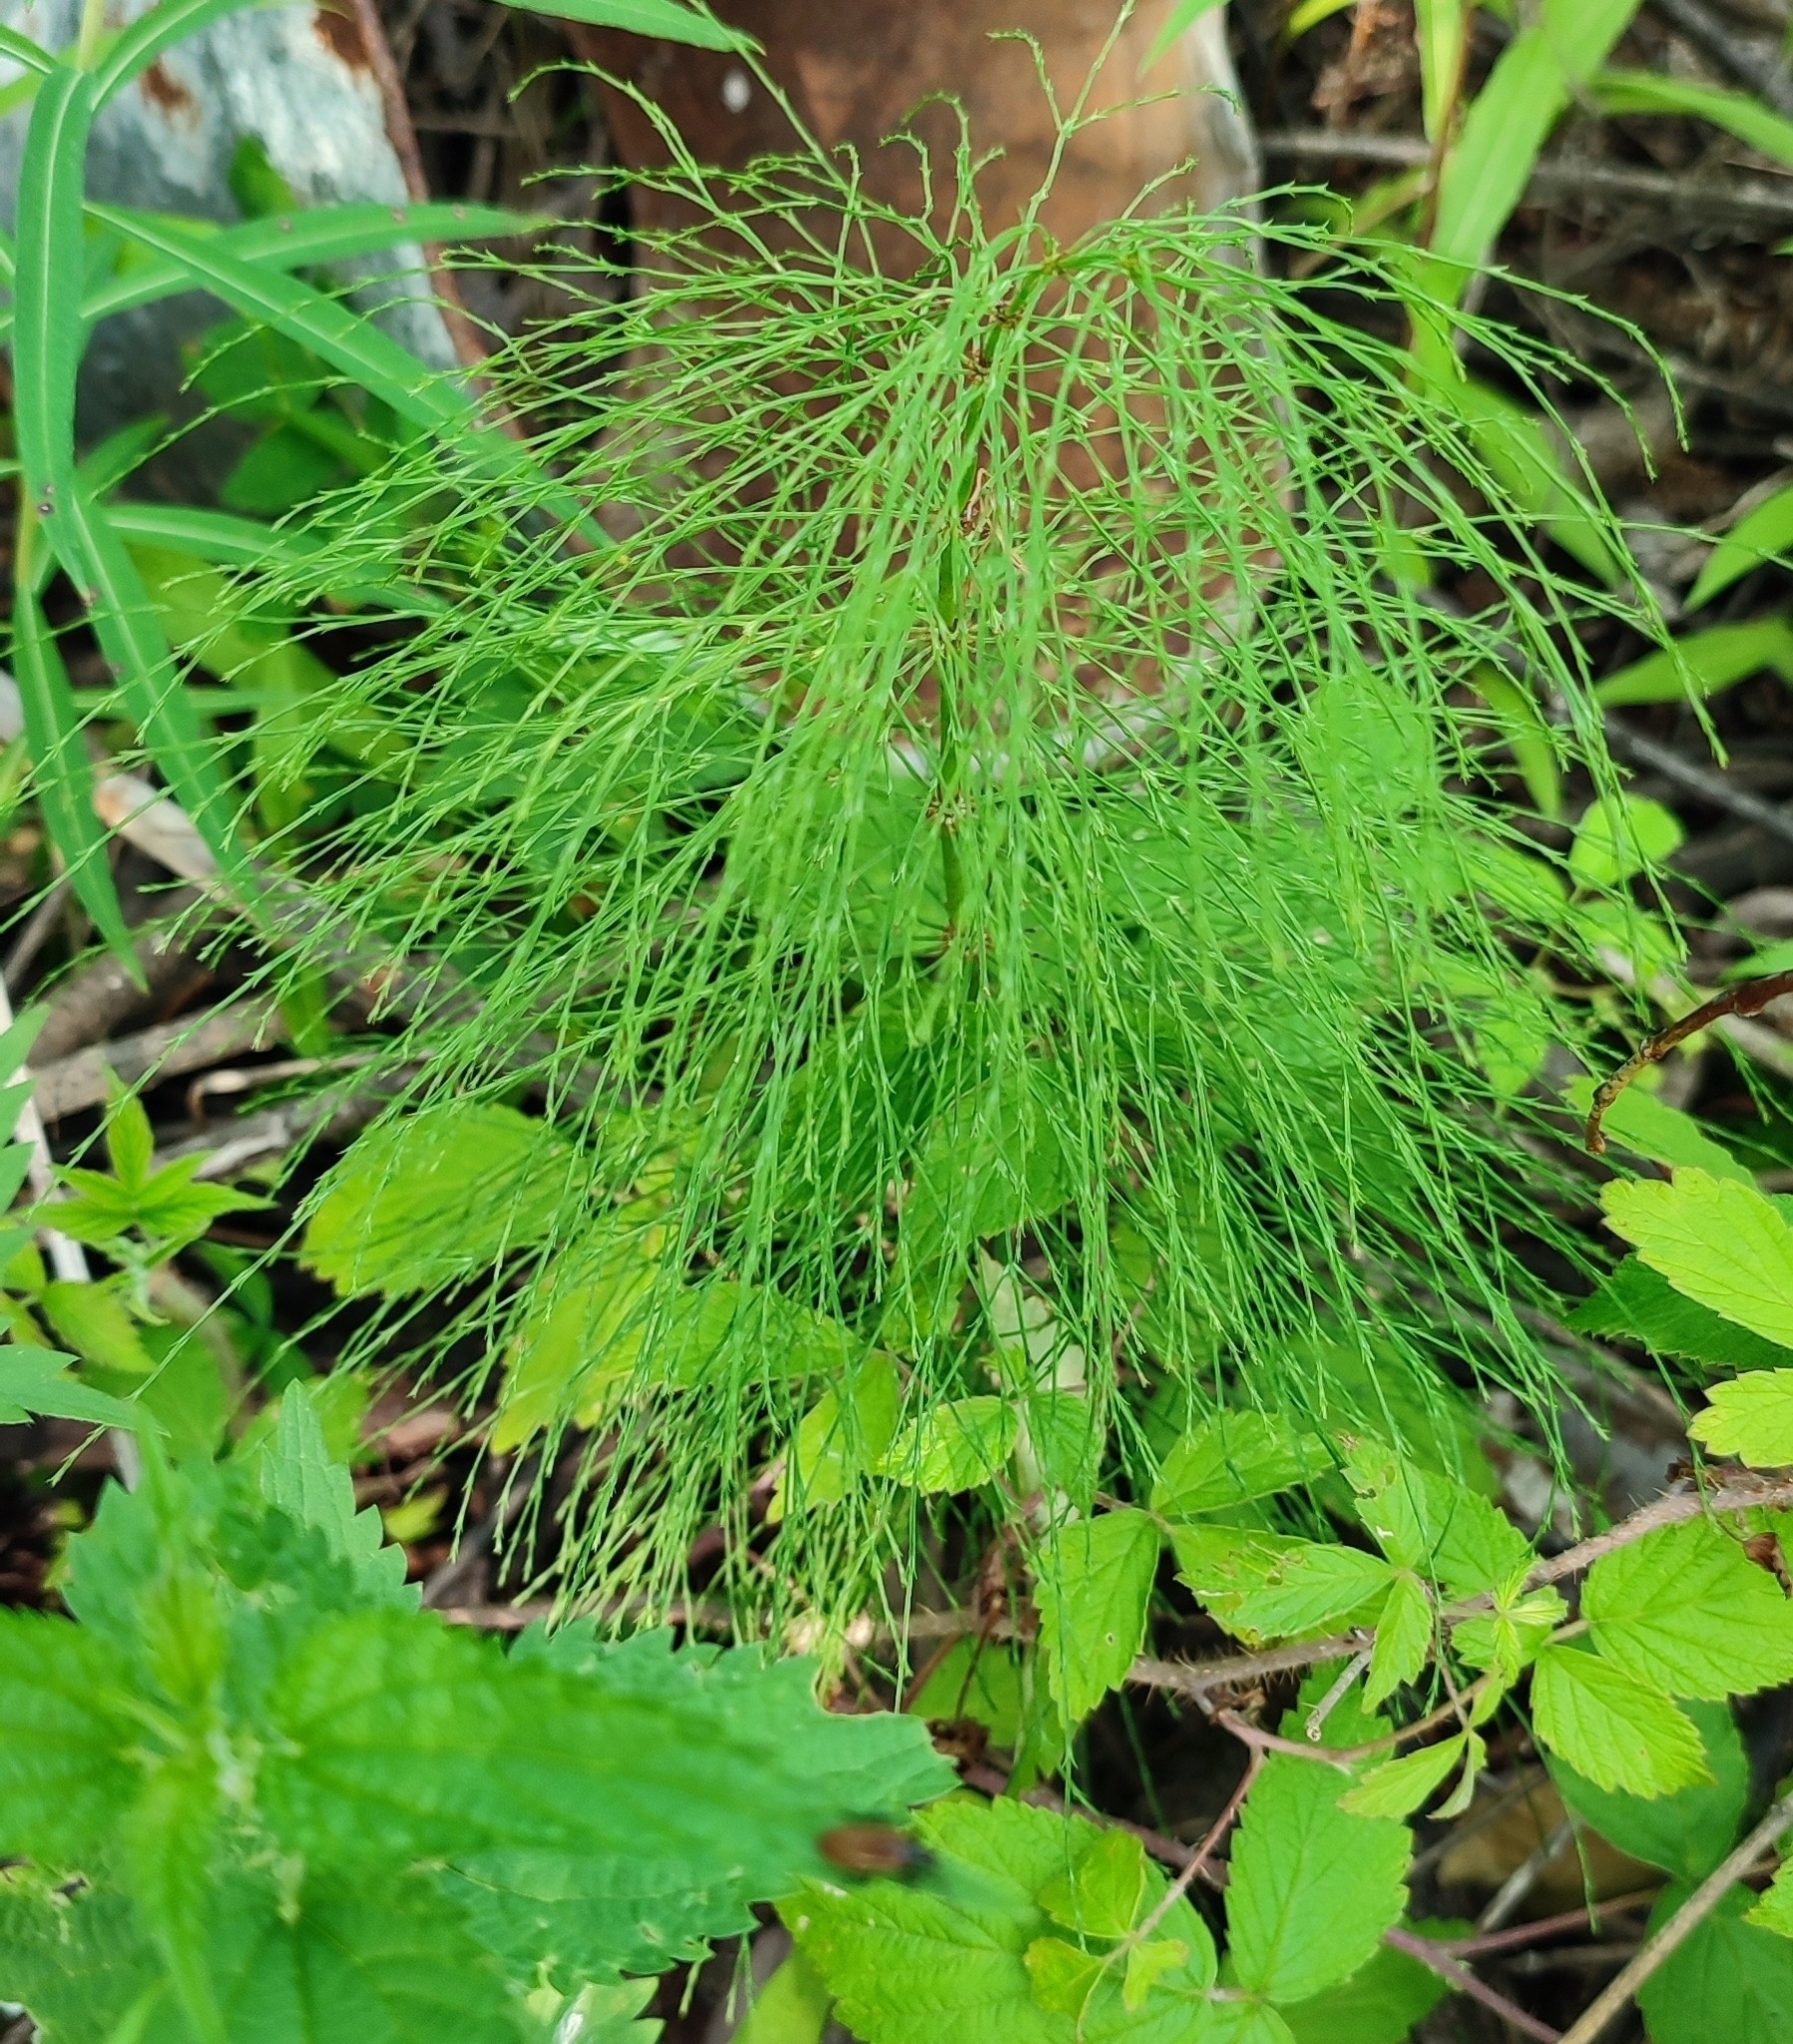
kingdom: Plantae
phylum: Tracheophyta
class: Polypodiopsida
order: Equisetales
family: Equisetaceae
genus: Equisetum
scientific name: Equisetum sylvaticum
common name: Wood horsetail
